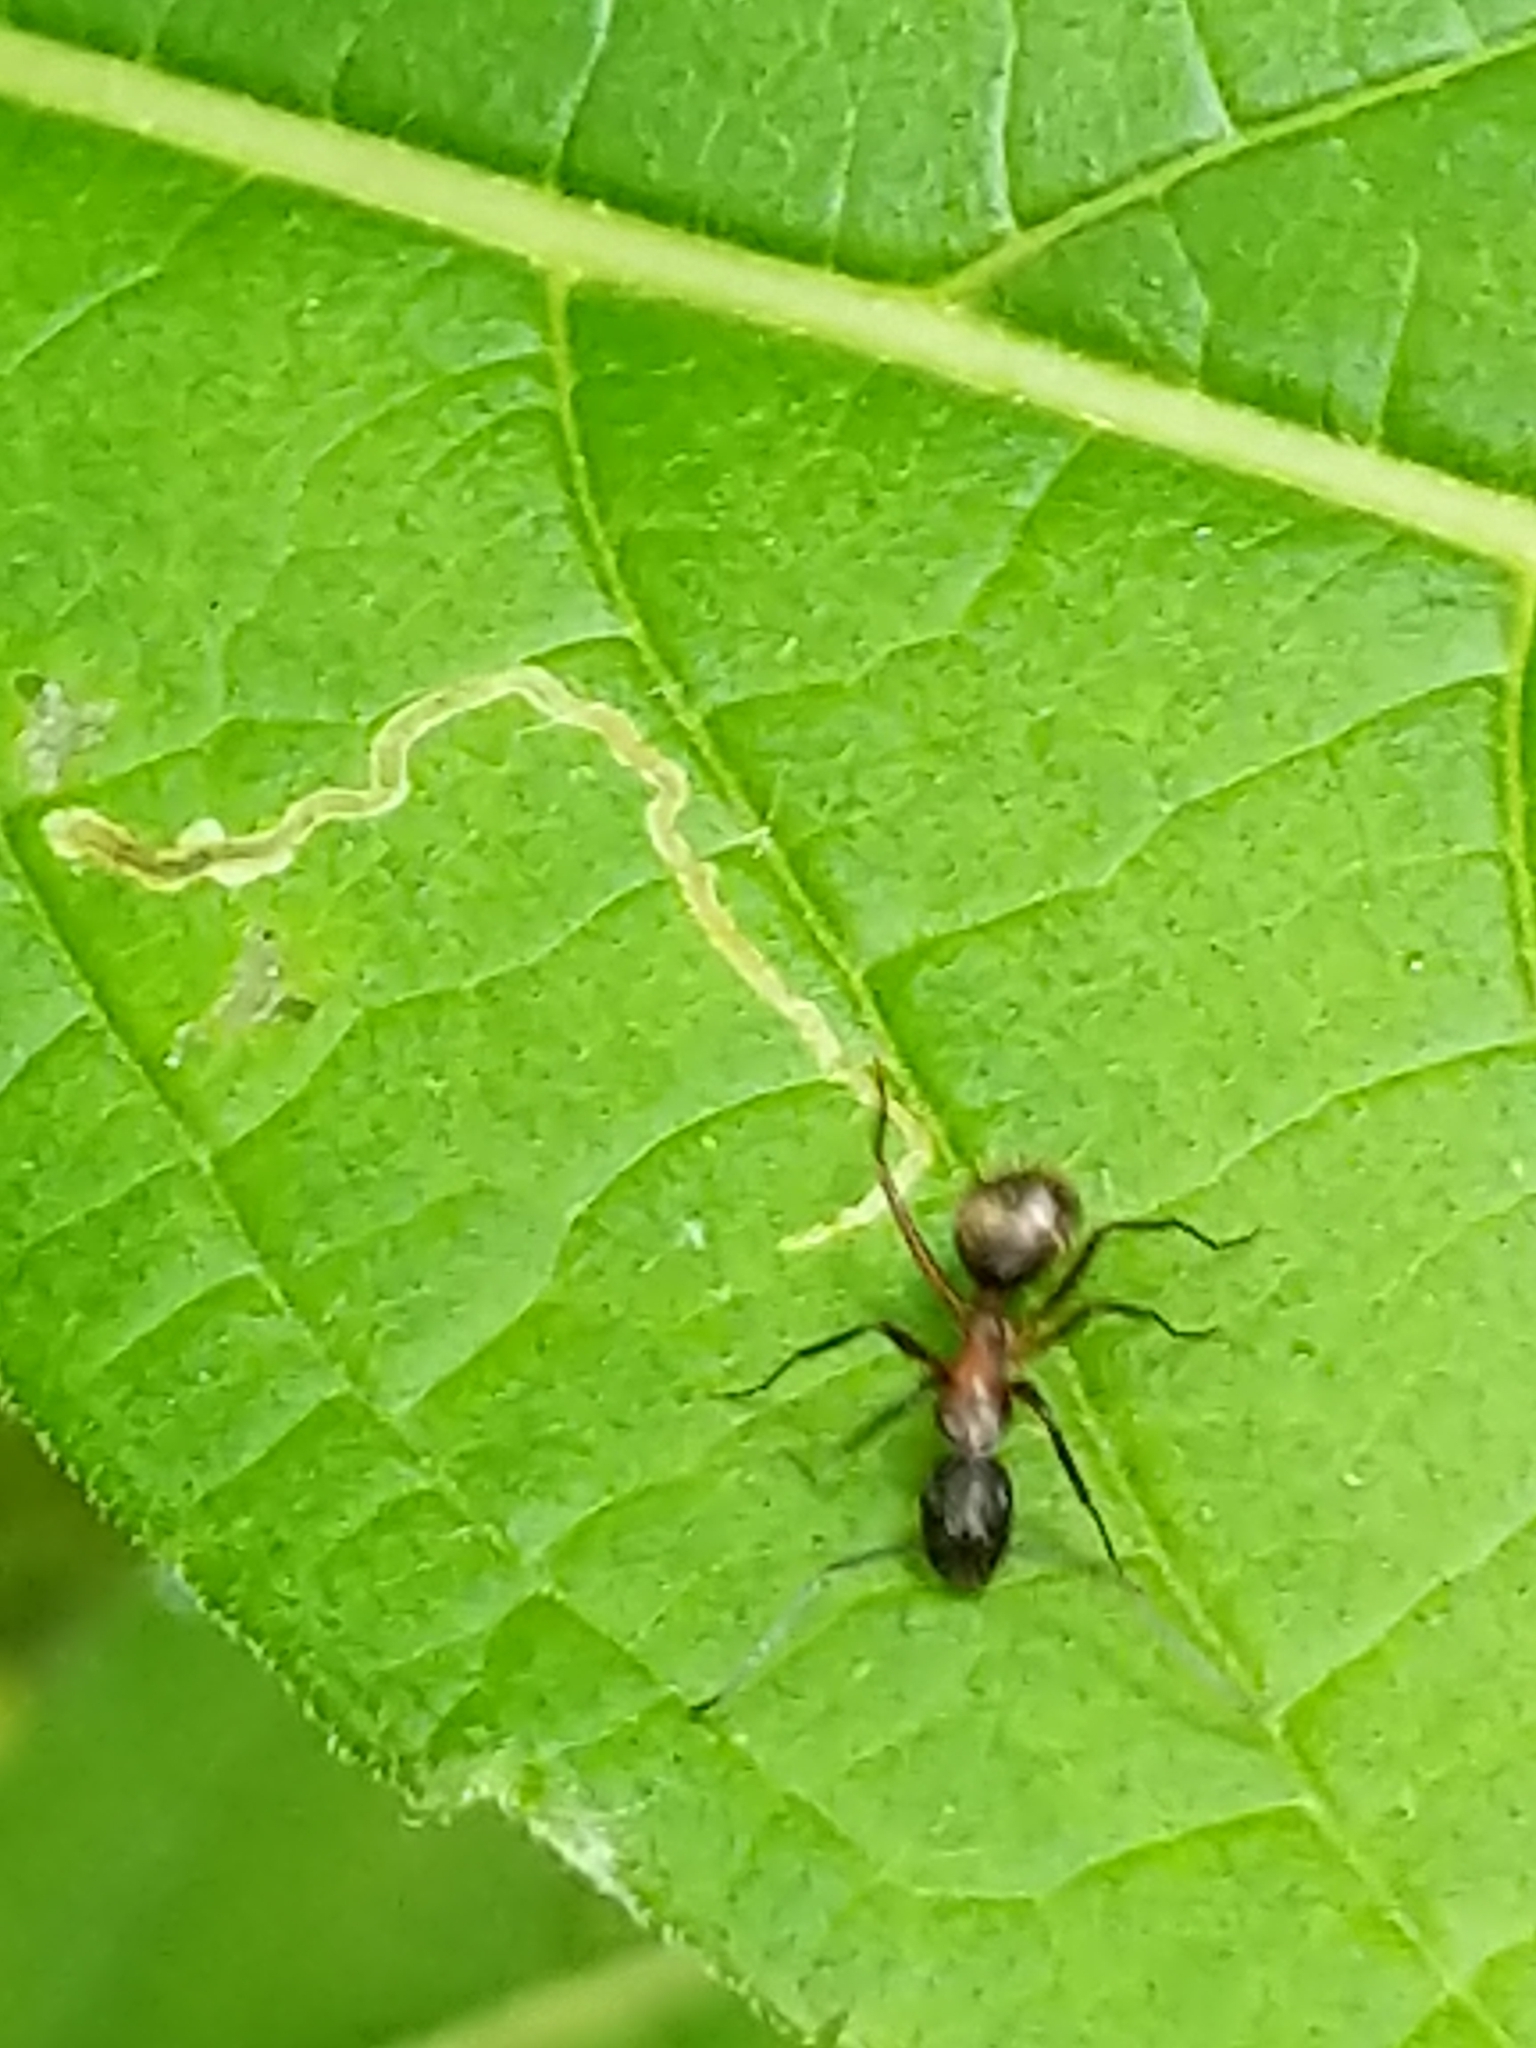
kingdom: Animalia
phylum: Arthropoda
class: Insecta
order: Hymenoptera
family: Formicidae
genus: Camponotus
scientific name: Camponotus chromaiodes
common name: Red carpenter ant
